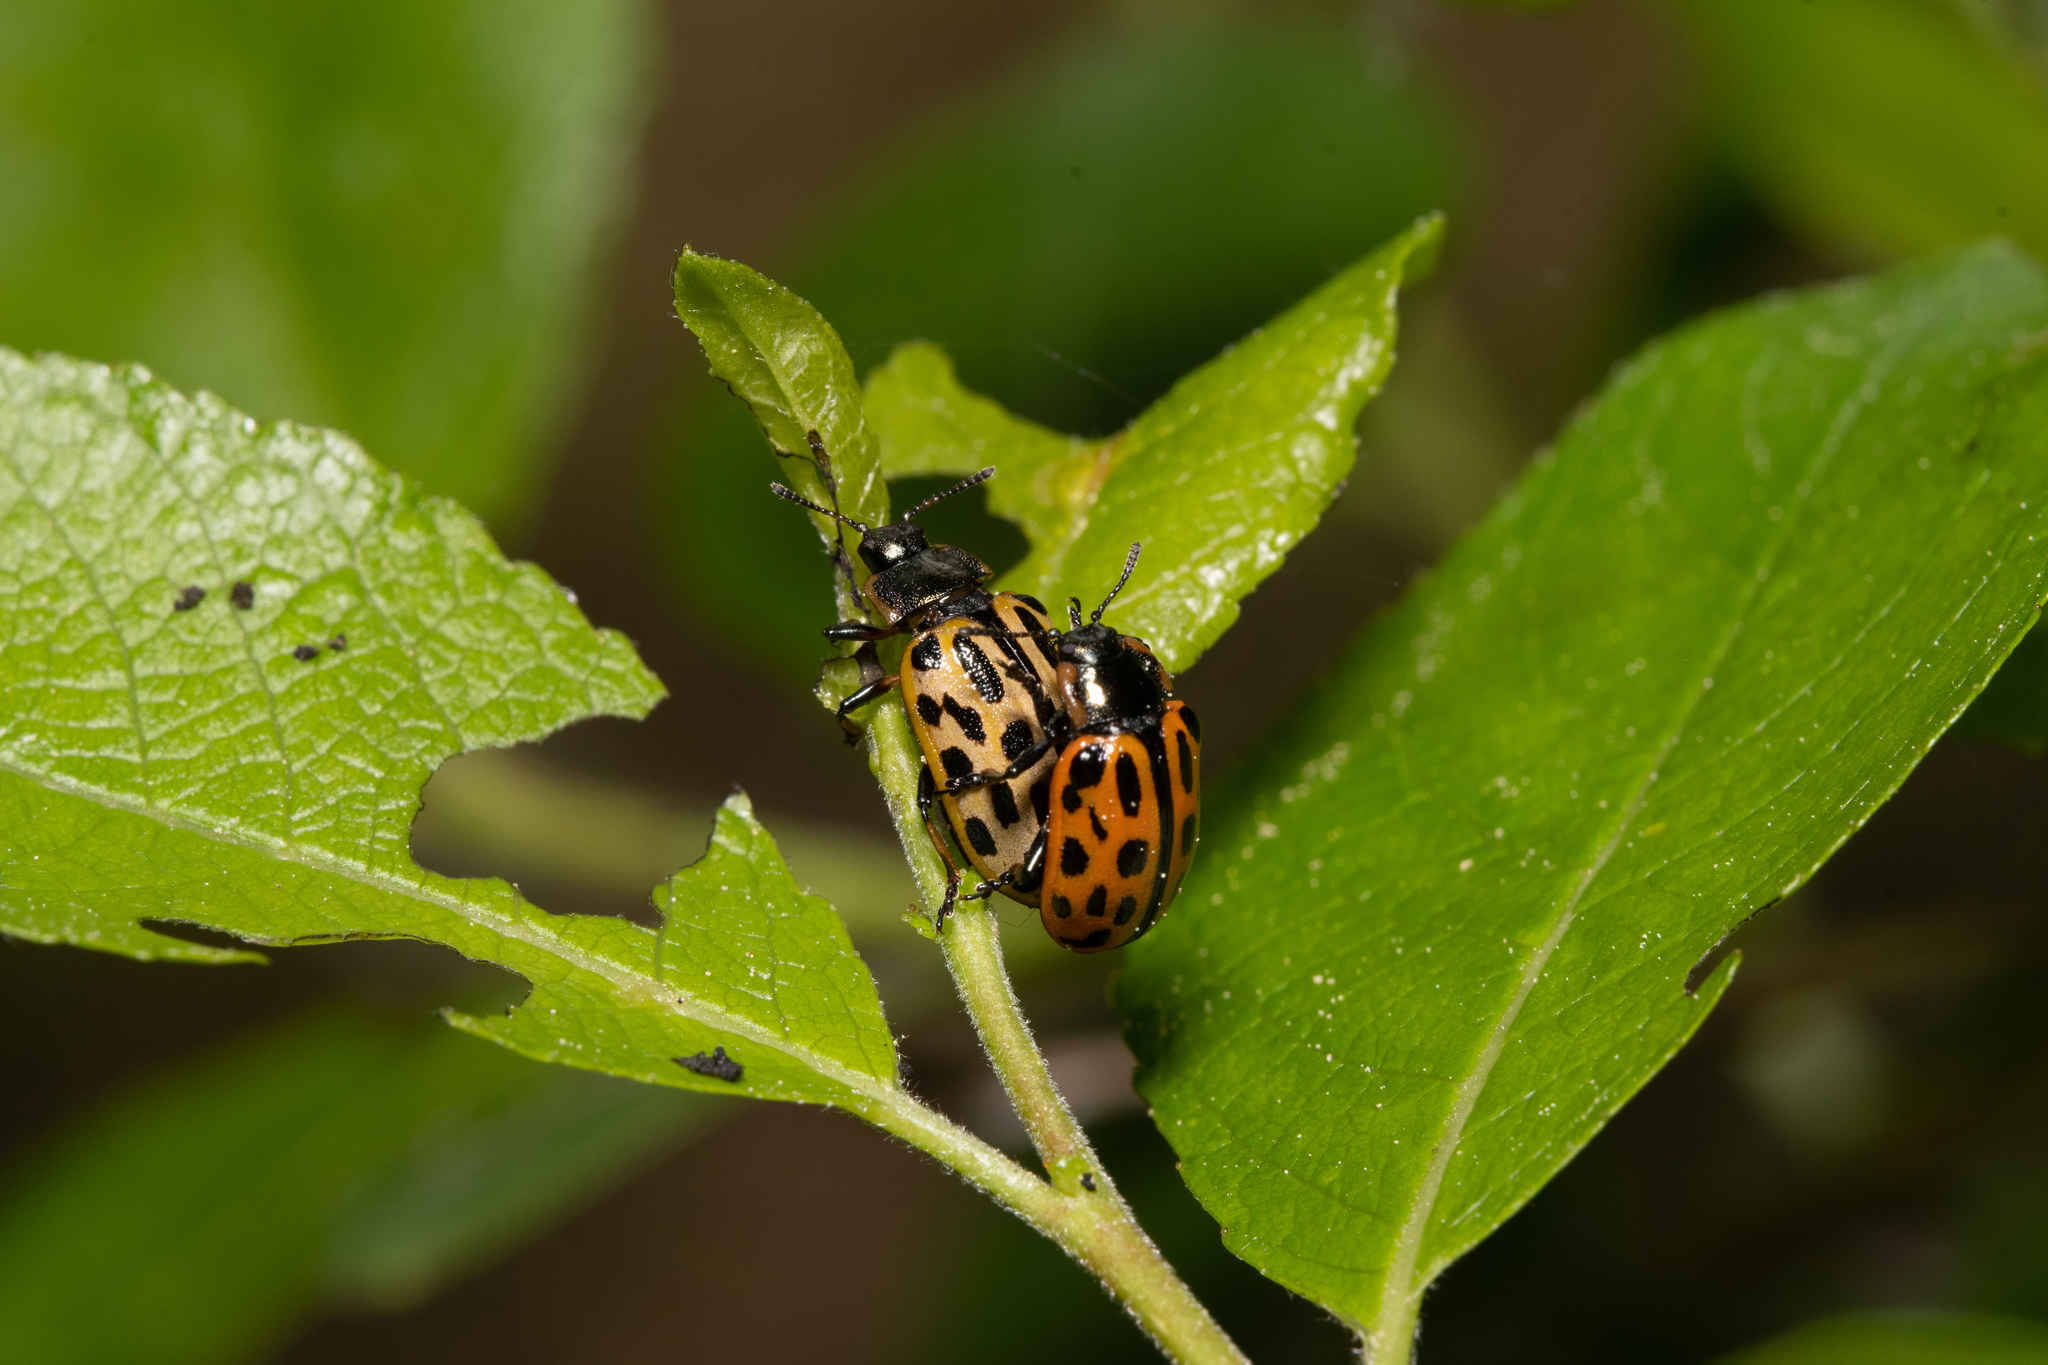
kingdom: Animalia
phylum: Arthropoda
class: Insecta
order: Coleoptera
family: Chrysomelidae
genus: Chrysomela
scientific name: Chrysomela vigintipunctata
